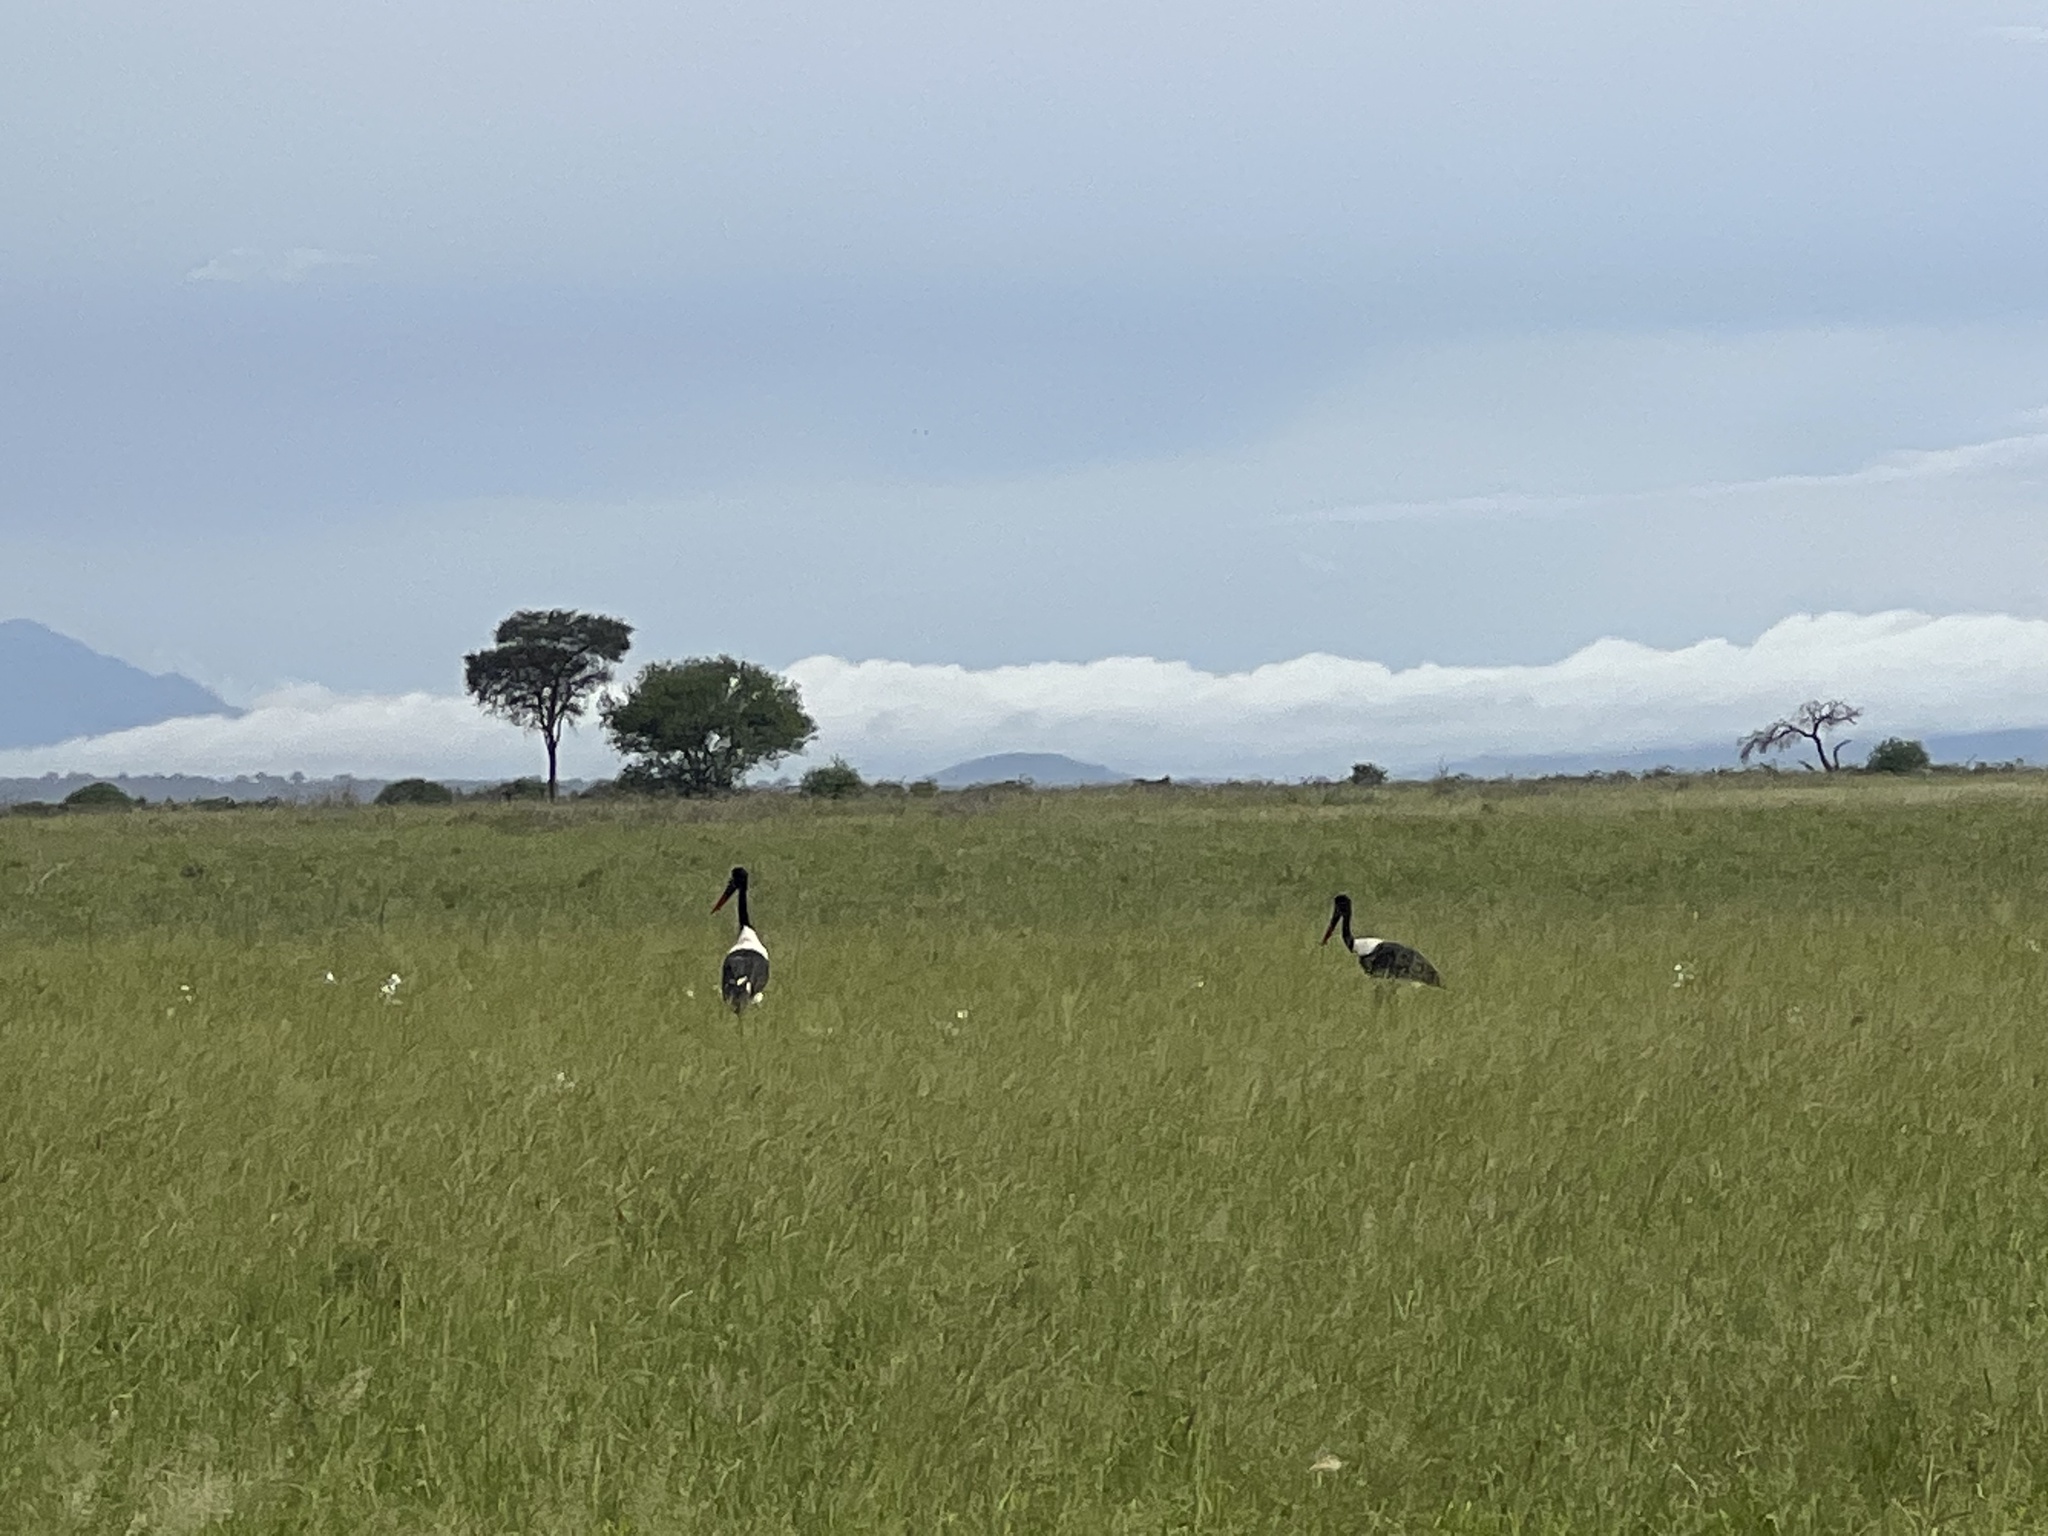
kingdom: Animalia
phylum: Chordata
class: Aves
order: Ciconiiformes
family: Ciconiidae
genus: Ephippiorhynchus
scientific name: Ephippiorhynchus senegalensis
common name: Saddle-billed stork
